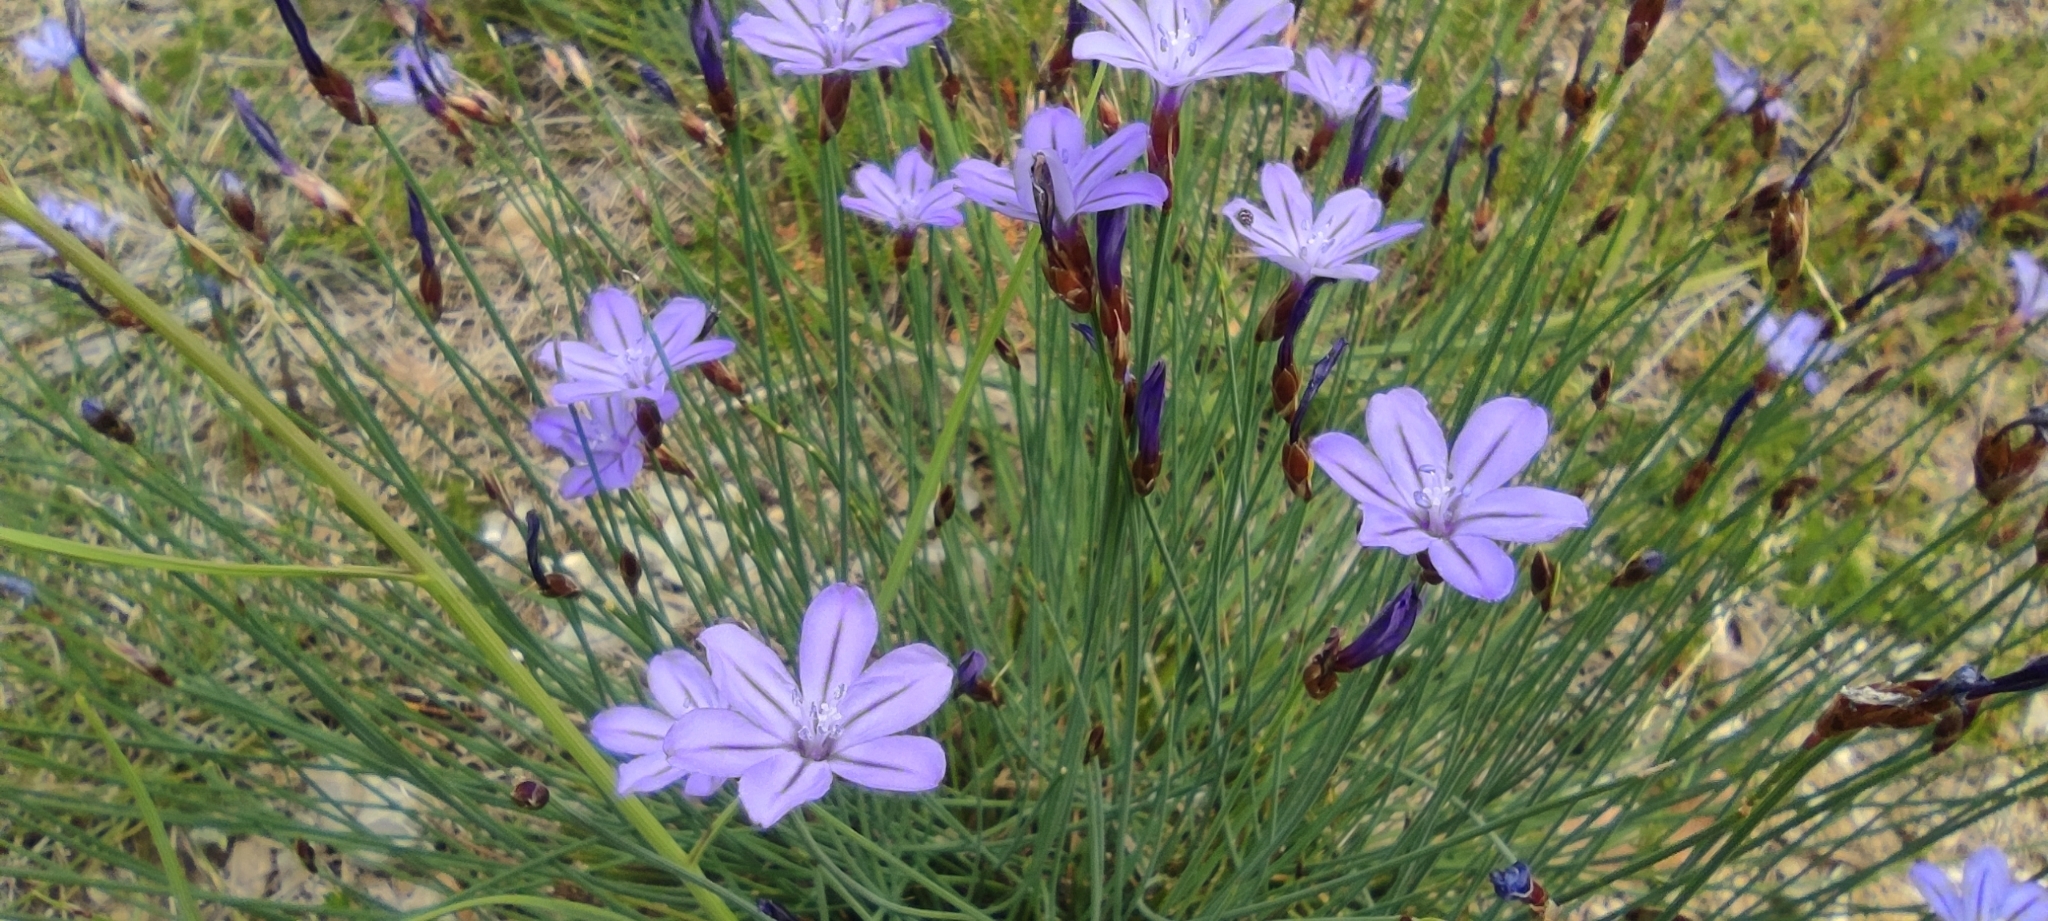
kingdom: Plantae
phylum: Tracheophyta
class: Liliopsida
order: Asparagales
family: Asparagaceae
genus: Aphyllanthes
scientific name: Aphyllanthes monspeliensis
